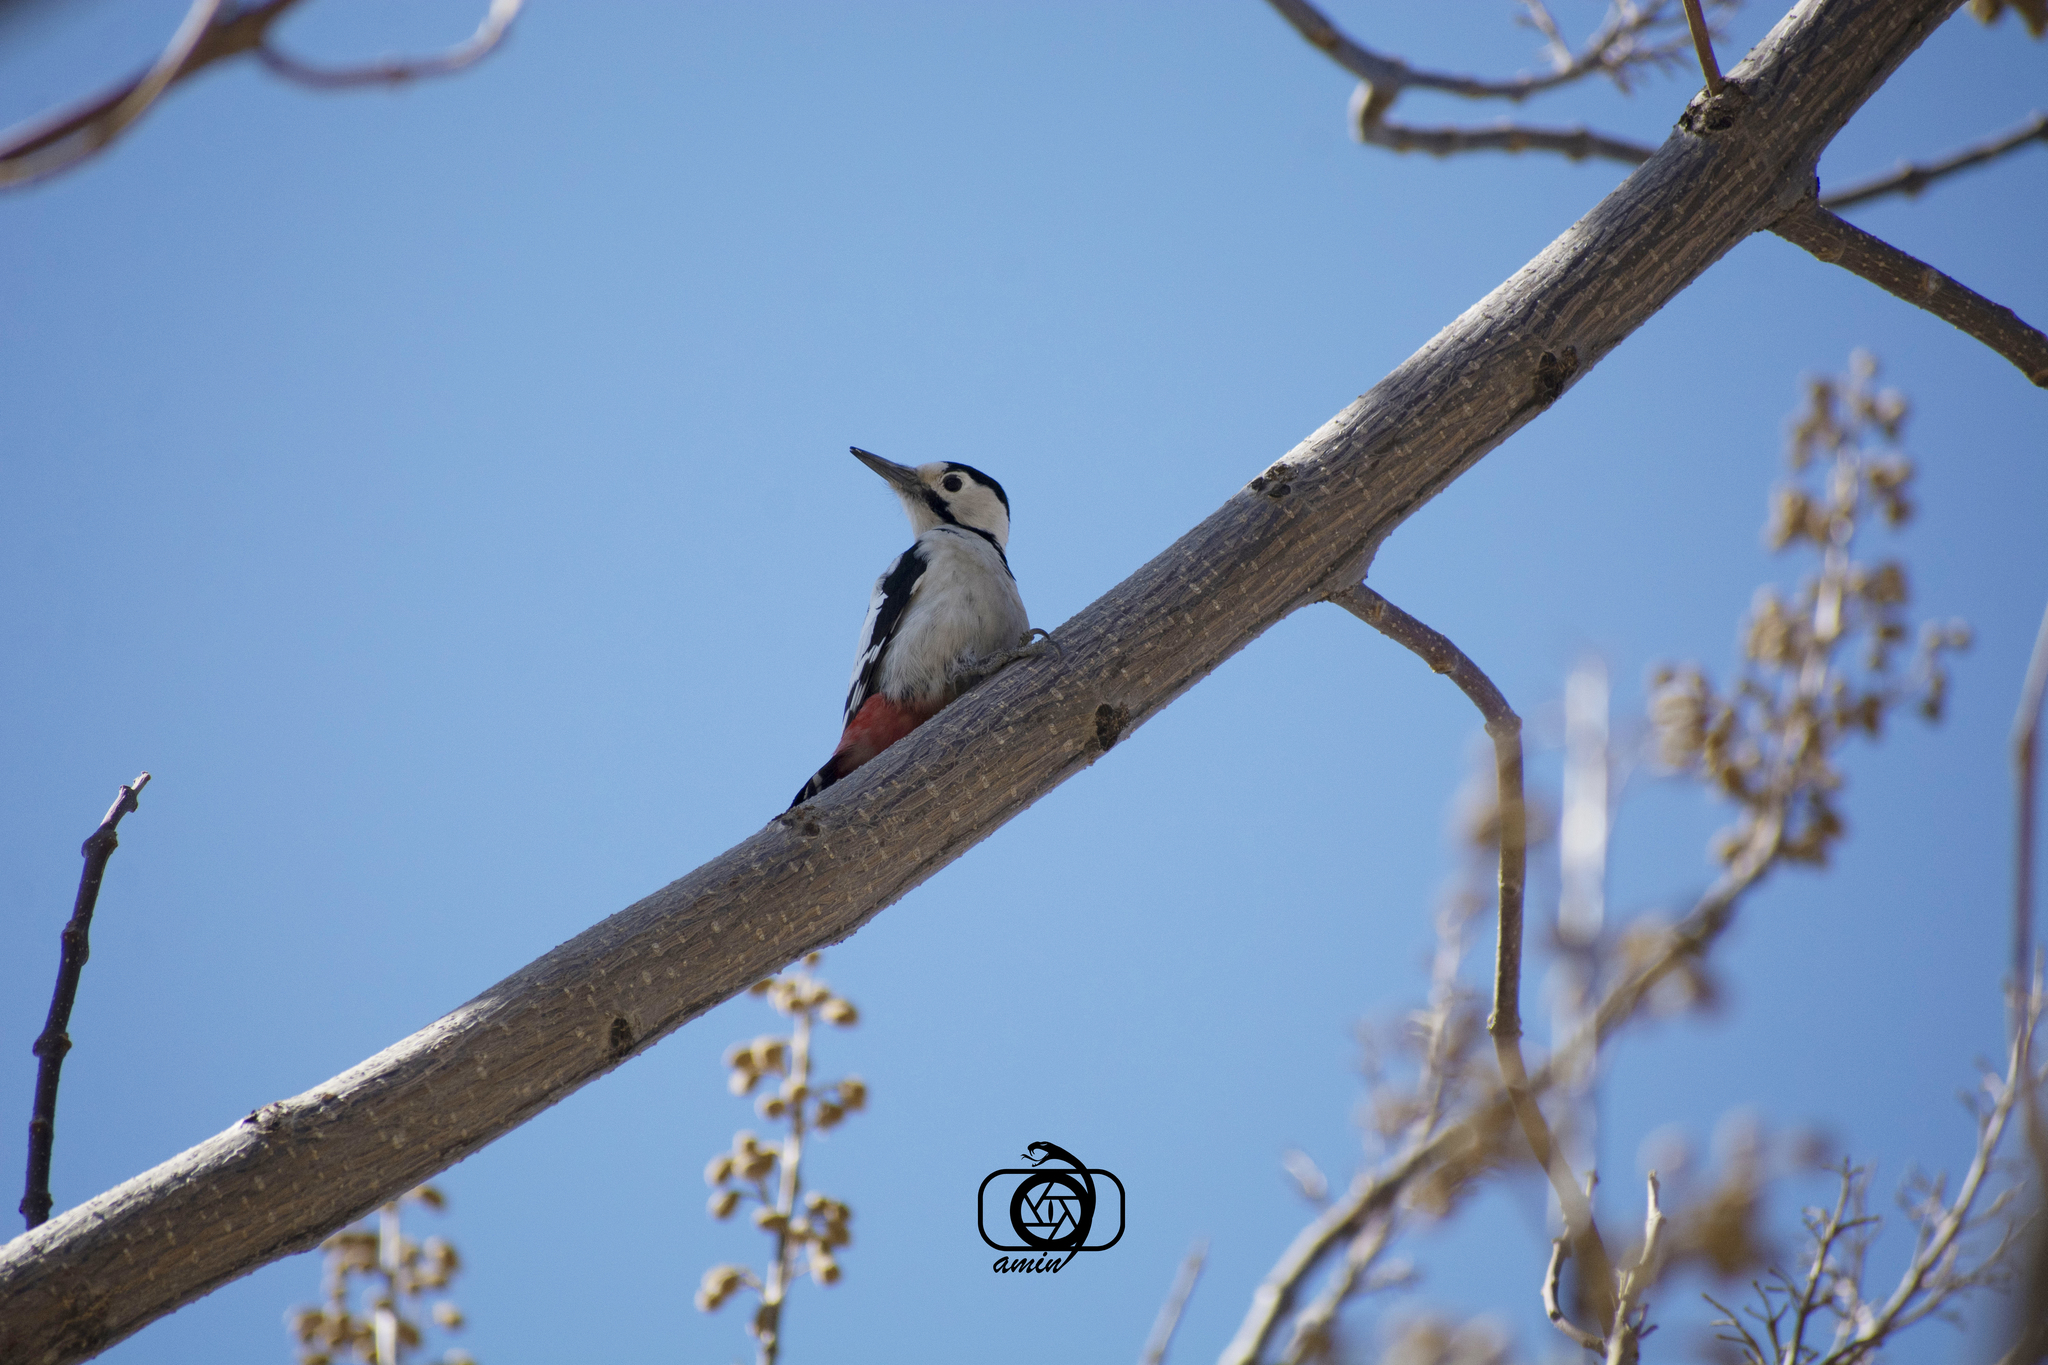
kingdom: Animalia
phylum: Chordata
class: Aves
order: Piciformes
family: Picidae
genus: Dendrocopos
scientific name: Dendrocopos syriacus
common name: Syrian woodpecker
